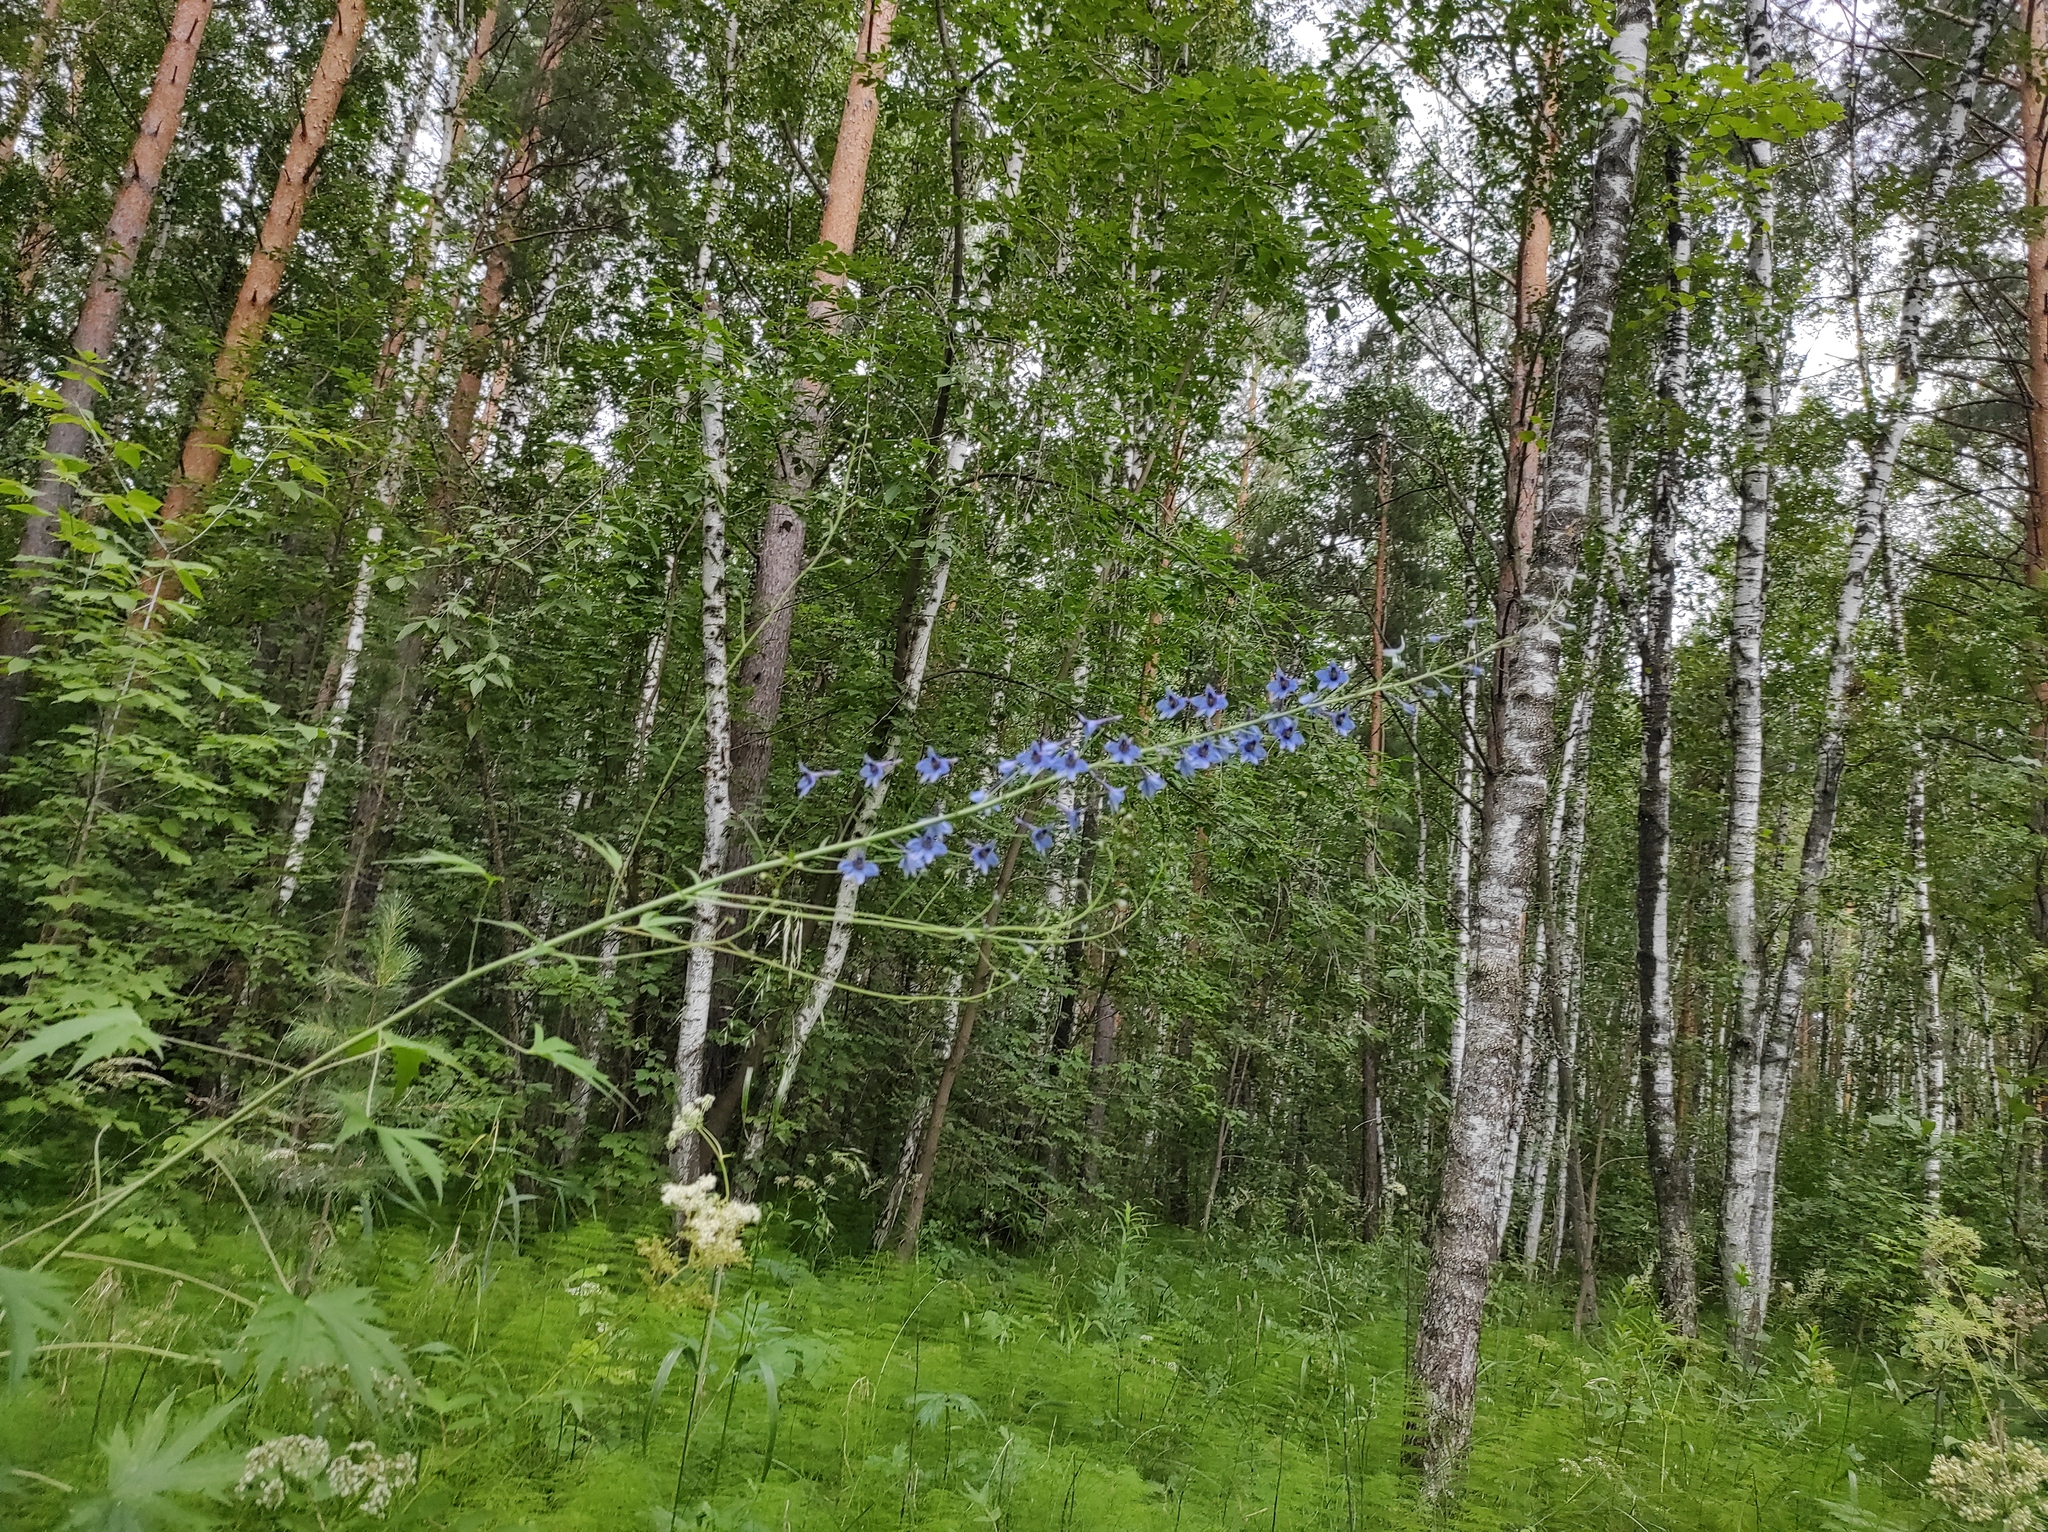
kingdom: Plantae
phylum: Tracheophyta
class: Magnoliopsida
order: Ranunculales
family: Ranunculaceae
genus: Delphinium
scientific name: Delphinium elatum
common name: Candle larkspur
